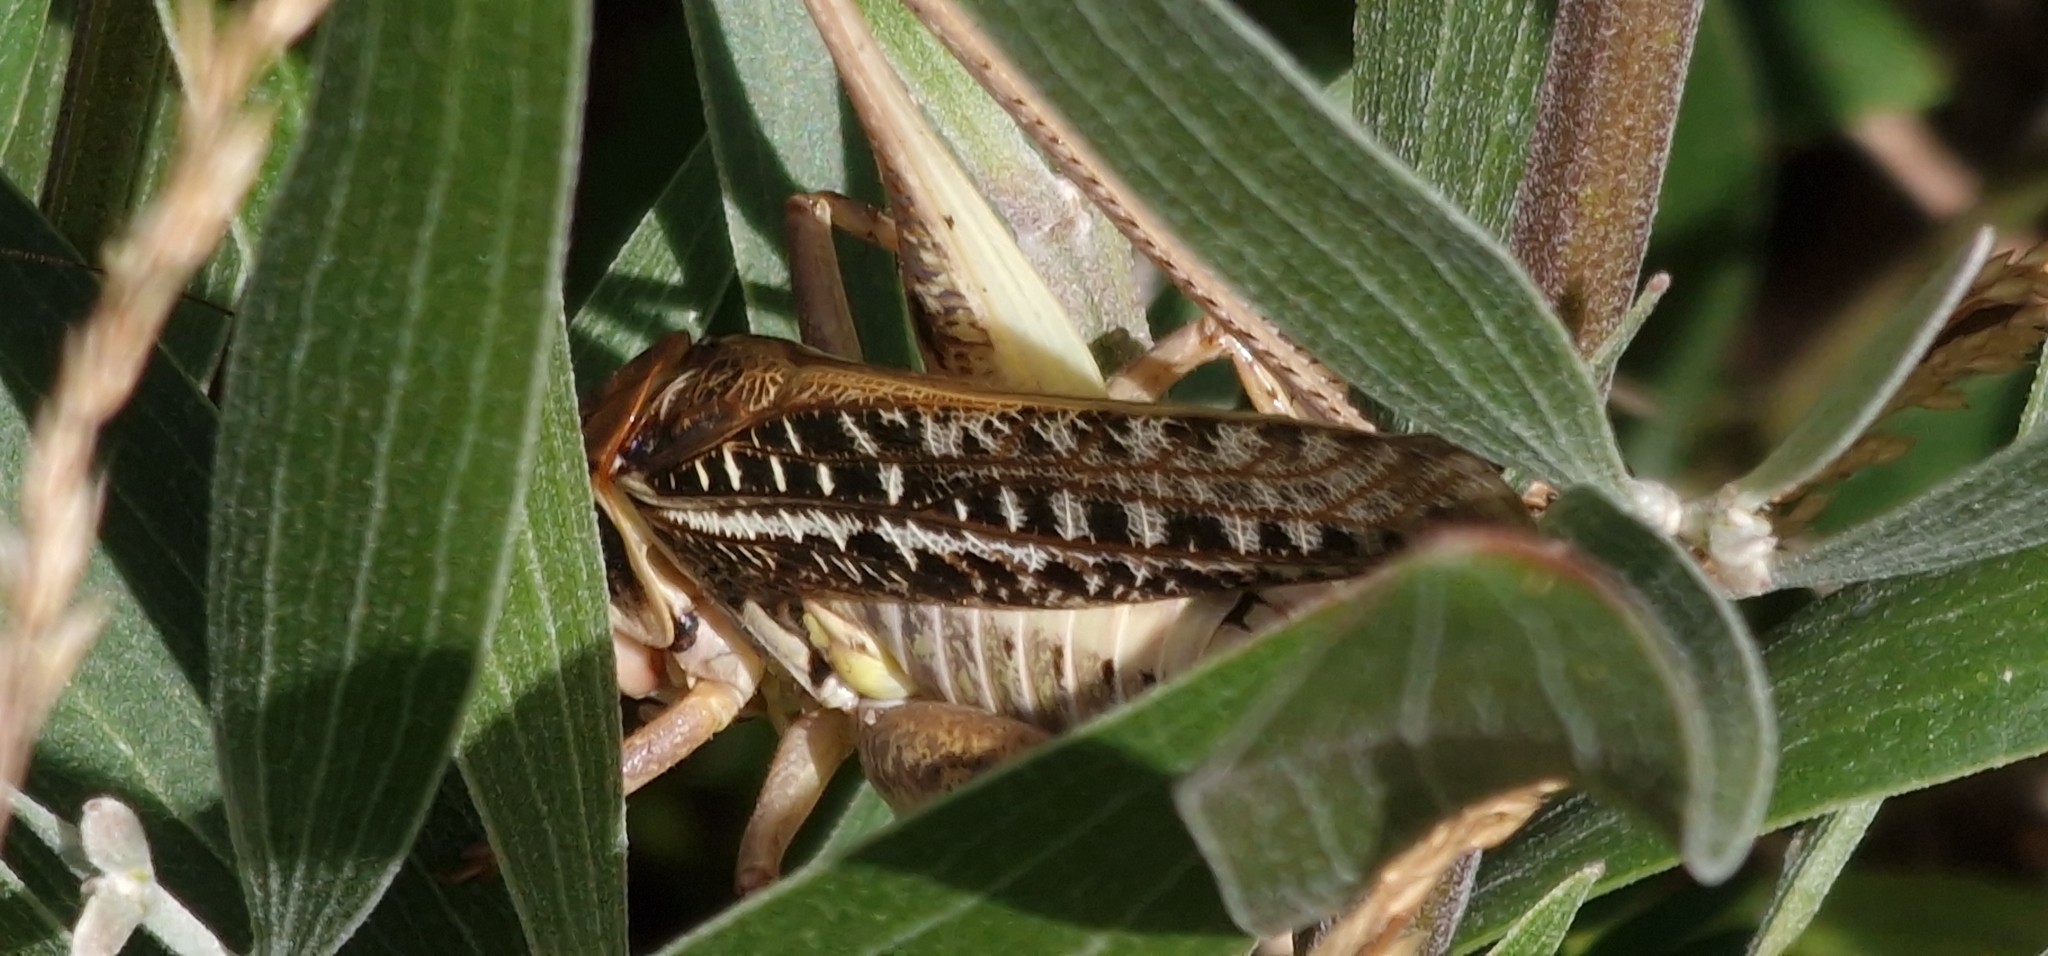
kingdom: Animalia
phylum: Arthropoda
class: Insecta
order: Orthoptera
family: Tettigoniidae
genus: Decticus
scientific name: Decticus albifrons
